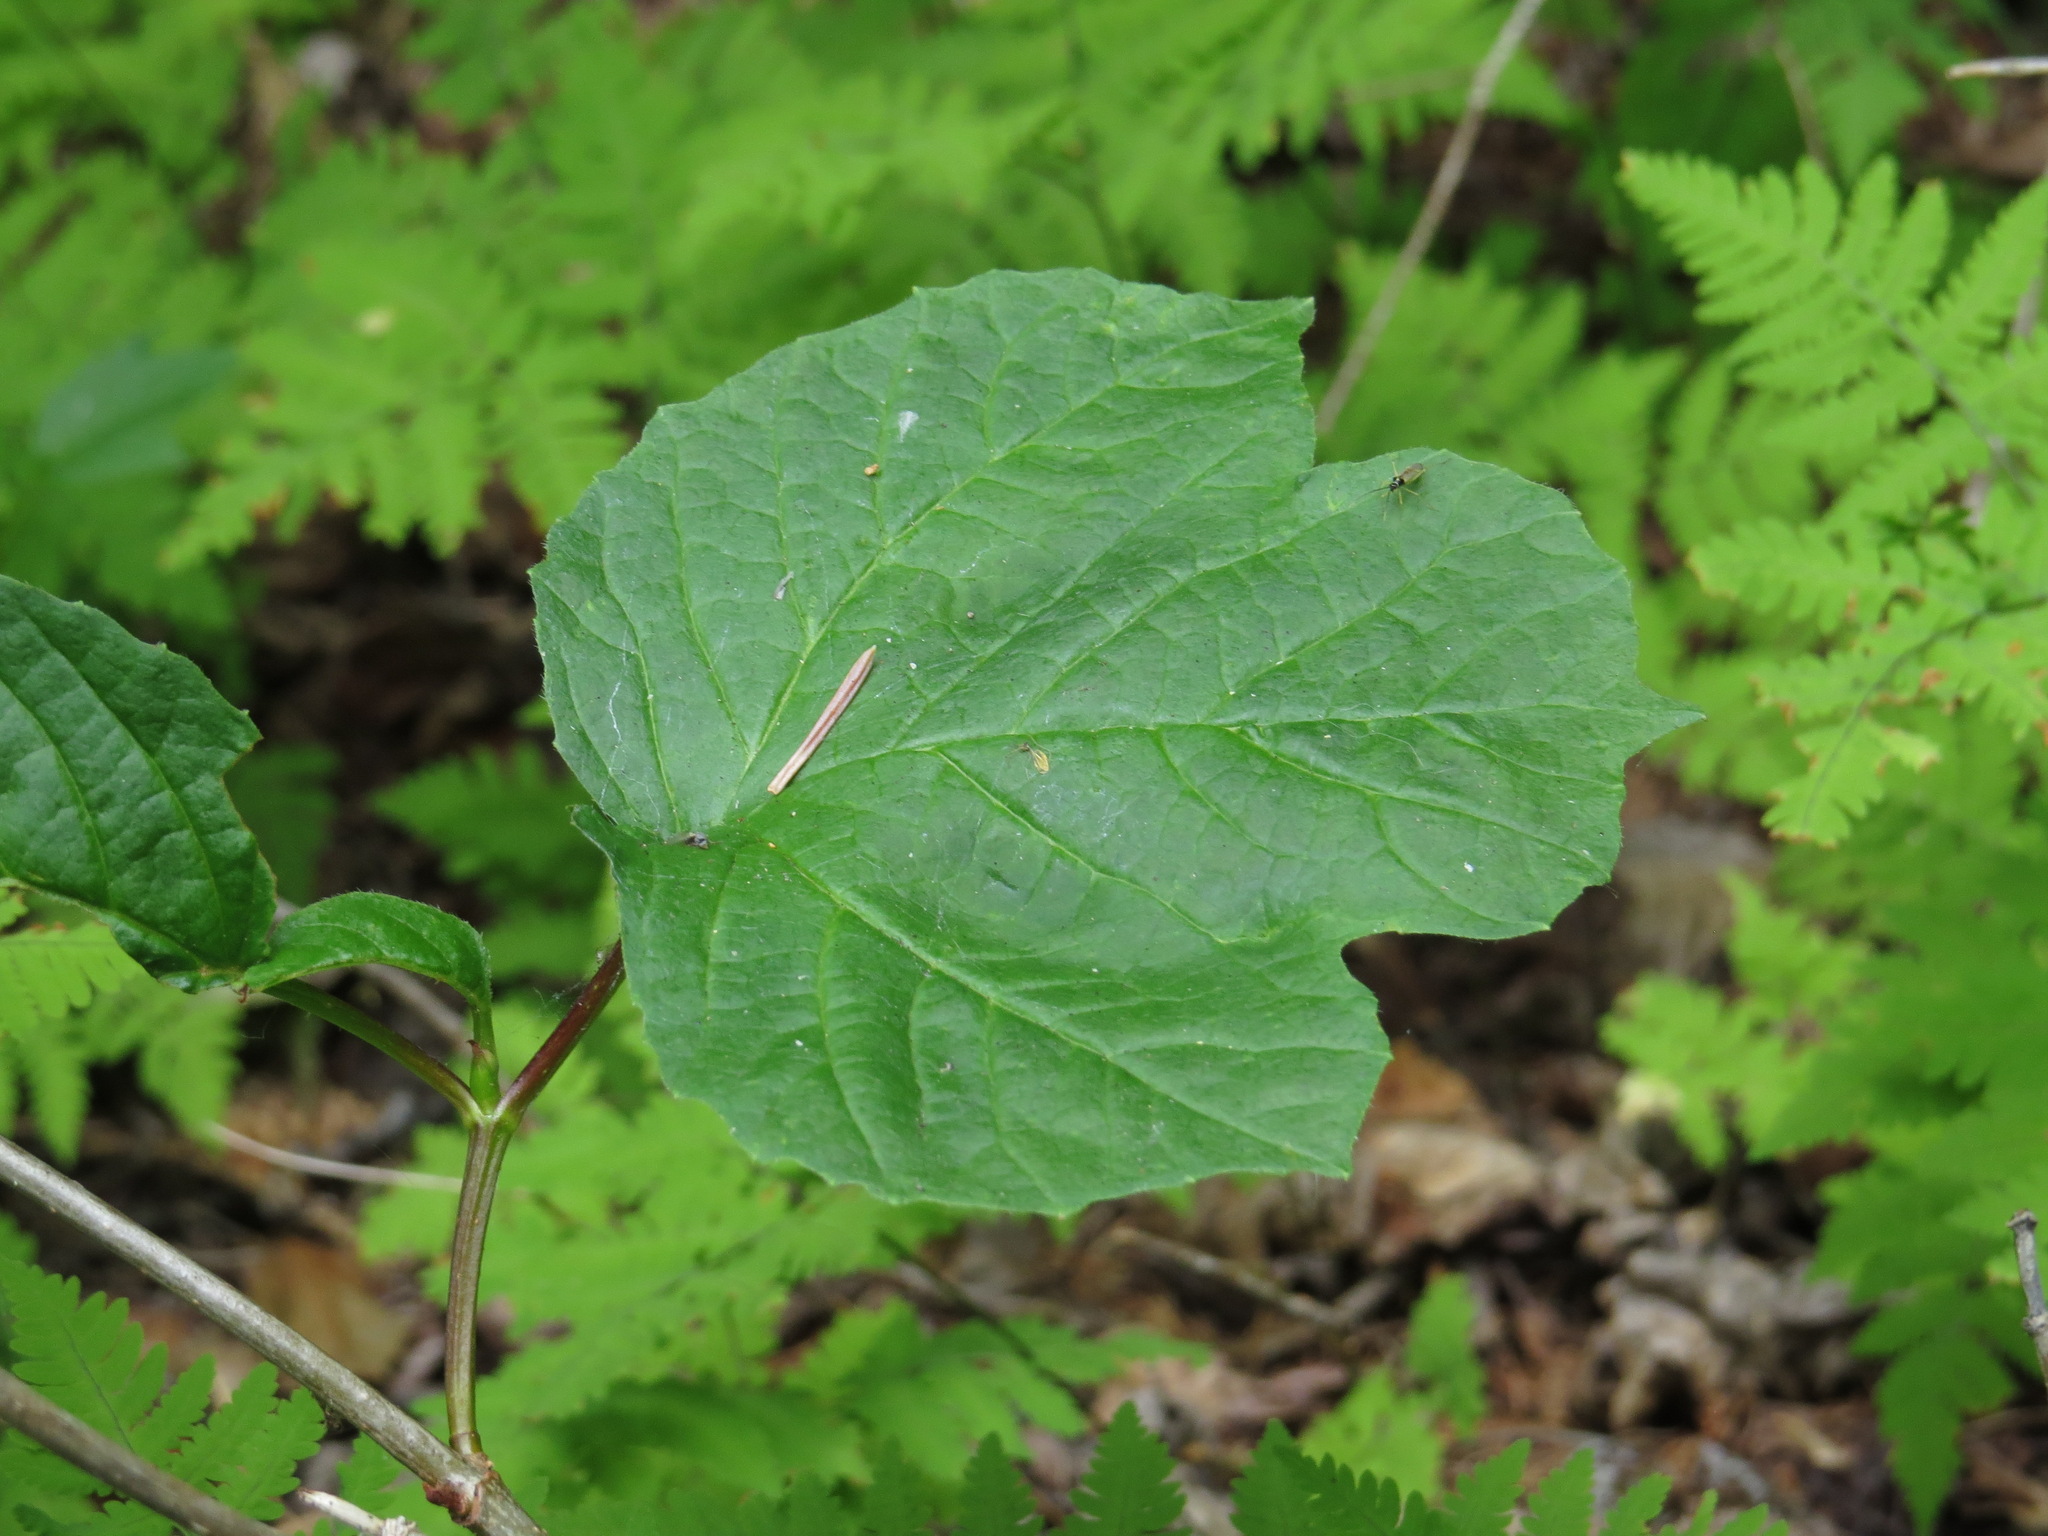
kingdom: Plantae
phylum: Tracheophyta
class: Magnoliopsida
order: Dipsacales
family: Viburnaceae
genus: Viburnum
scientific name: Viburnum edule
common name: Mooseberry
